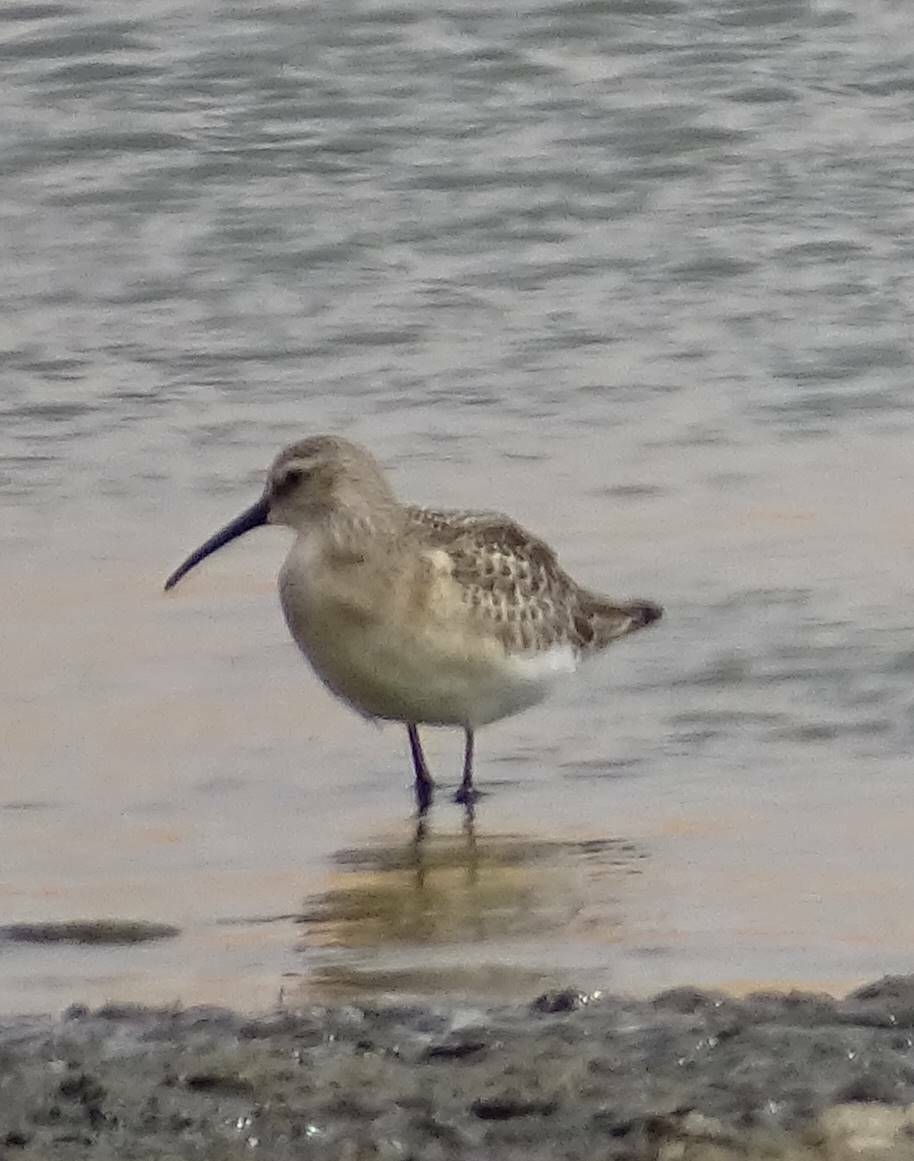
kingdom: Animalia
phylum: Chordata
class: Aves
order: Charadriiformes
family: Scolopacidae
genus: Calidris
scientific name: Calidris ferruginea
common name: Curlew sandpiper
